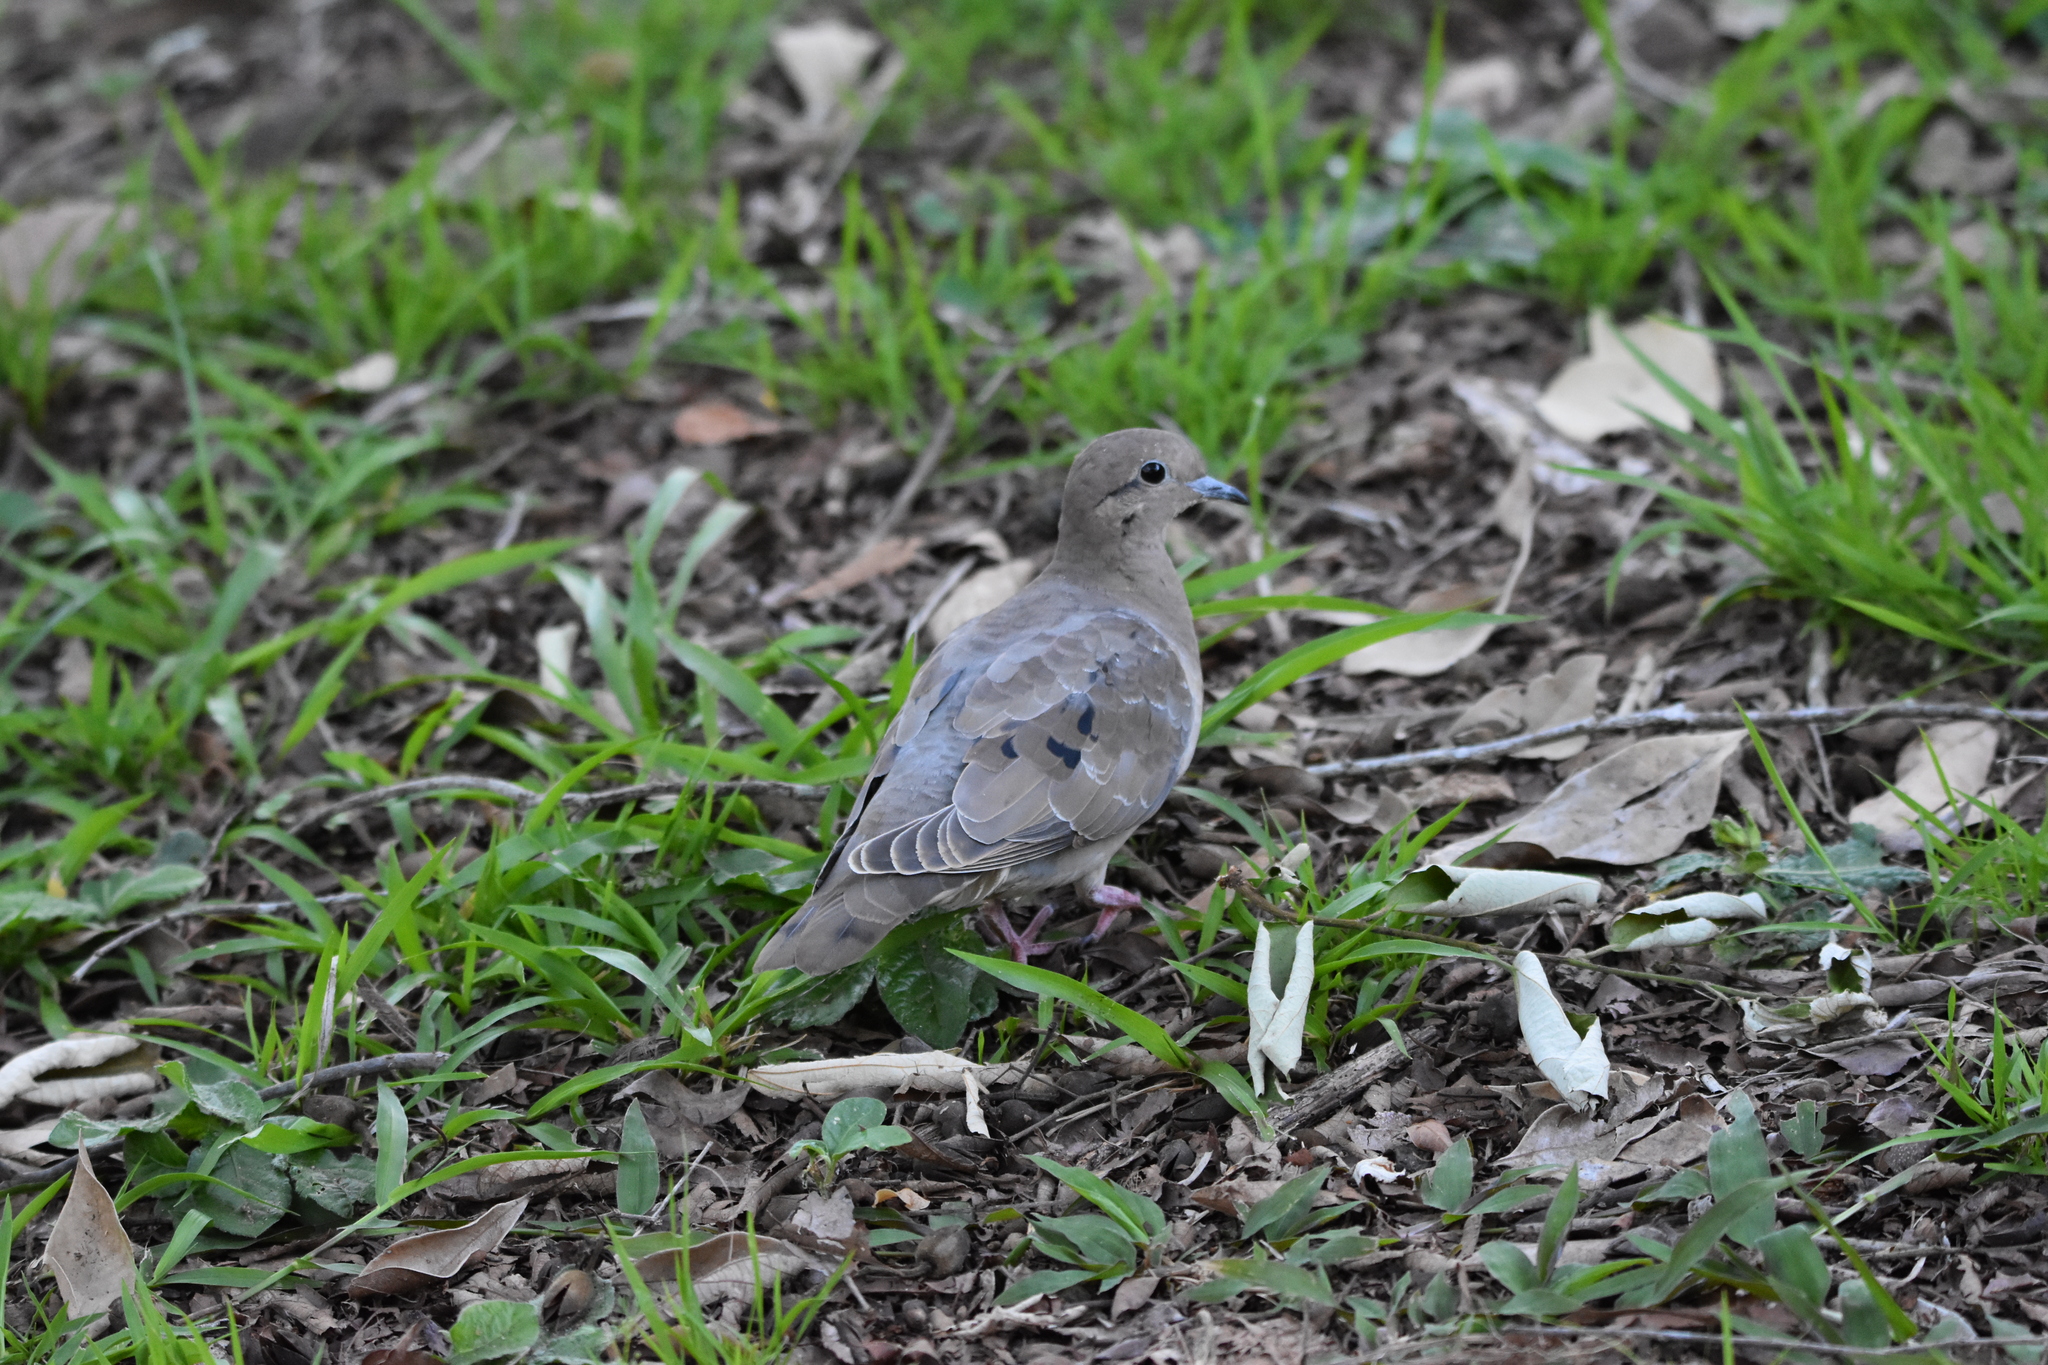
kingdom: Animalia
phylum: Chordata
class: Aves
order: Columbiformes
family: Columbidae
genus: Zenaida
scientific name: Zenaida auriculata
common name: Eared dove
